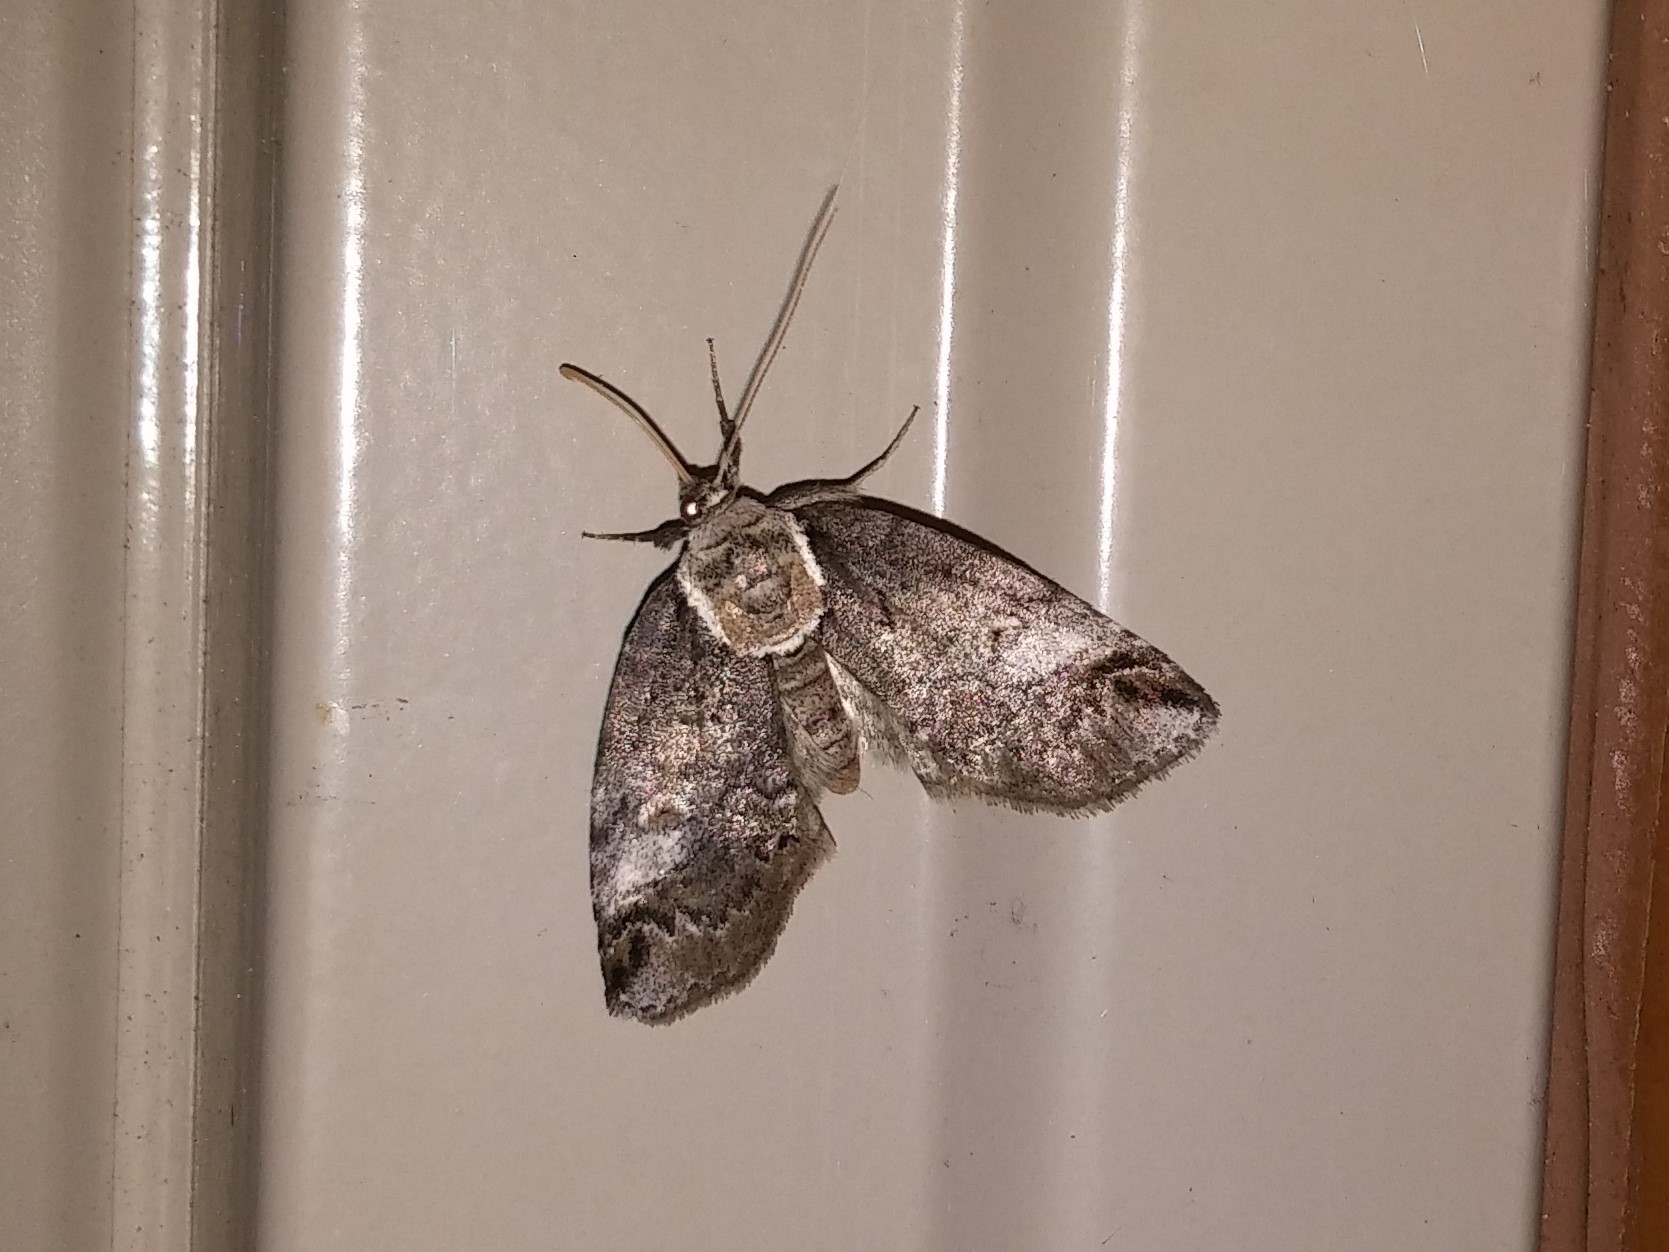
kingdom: Animalia
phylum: Arthropoda
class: Insecta
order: Lepidoptera
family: Nolidae
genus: Baileya
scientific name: Baileya ophthalmica
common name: Eyed baileya moth
